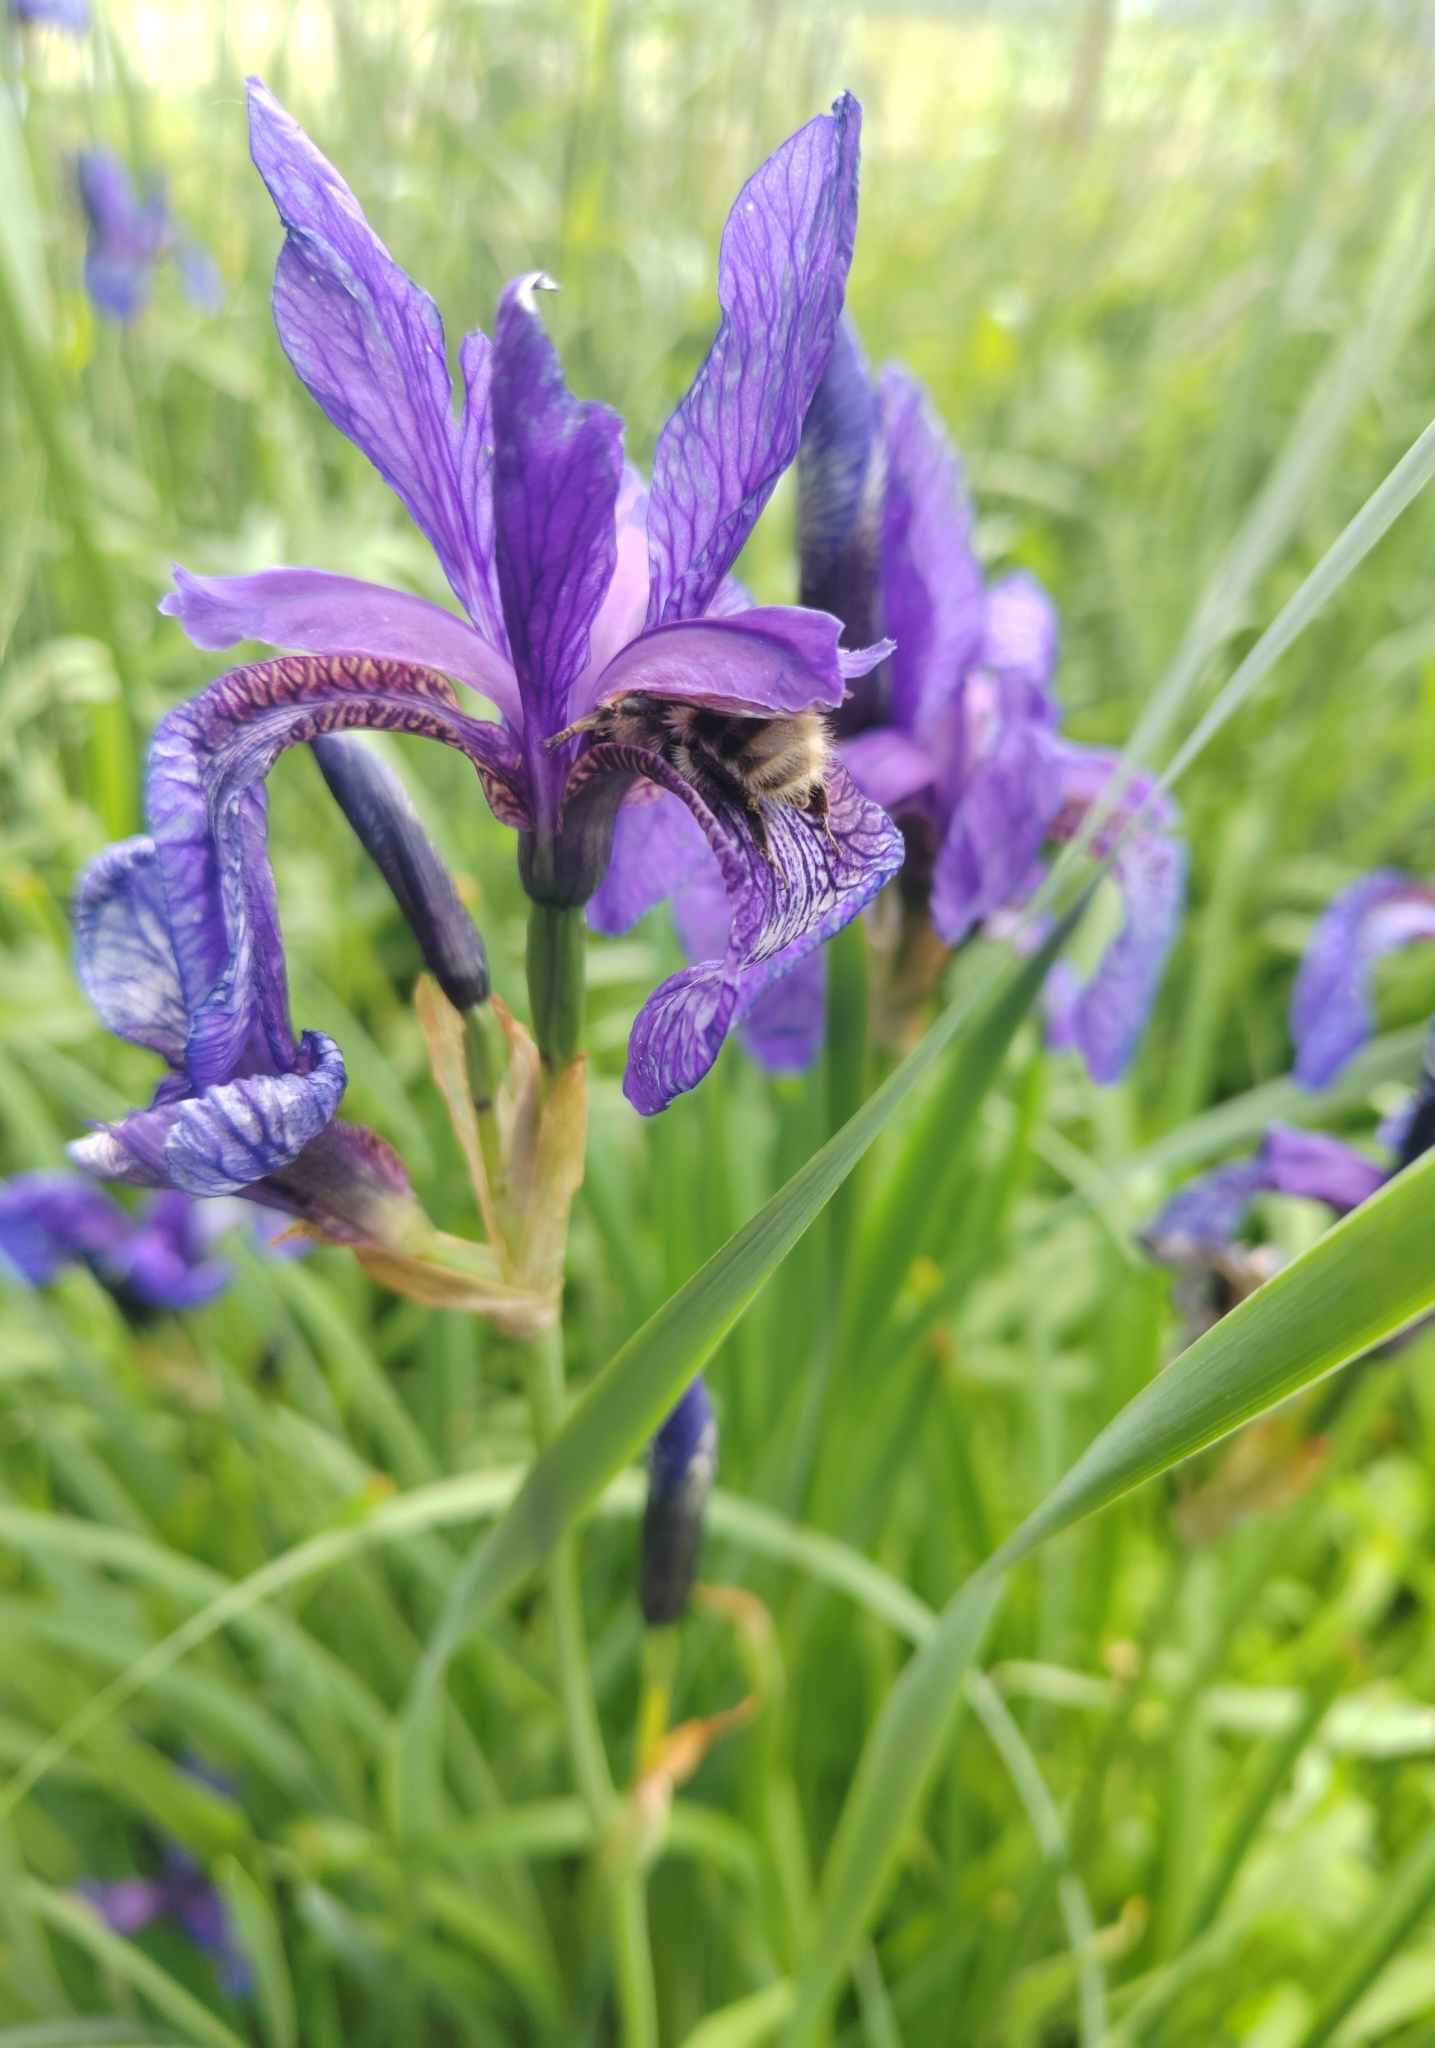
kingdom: Plantae
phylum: Tracheophyta
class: Liliopsida
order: Asparagales
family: Iridaceae
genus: Iris
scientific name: Iris sibirica
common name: Siberian iris
